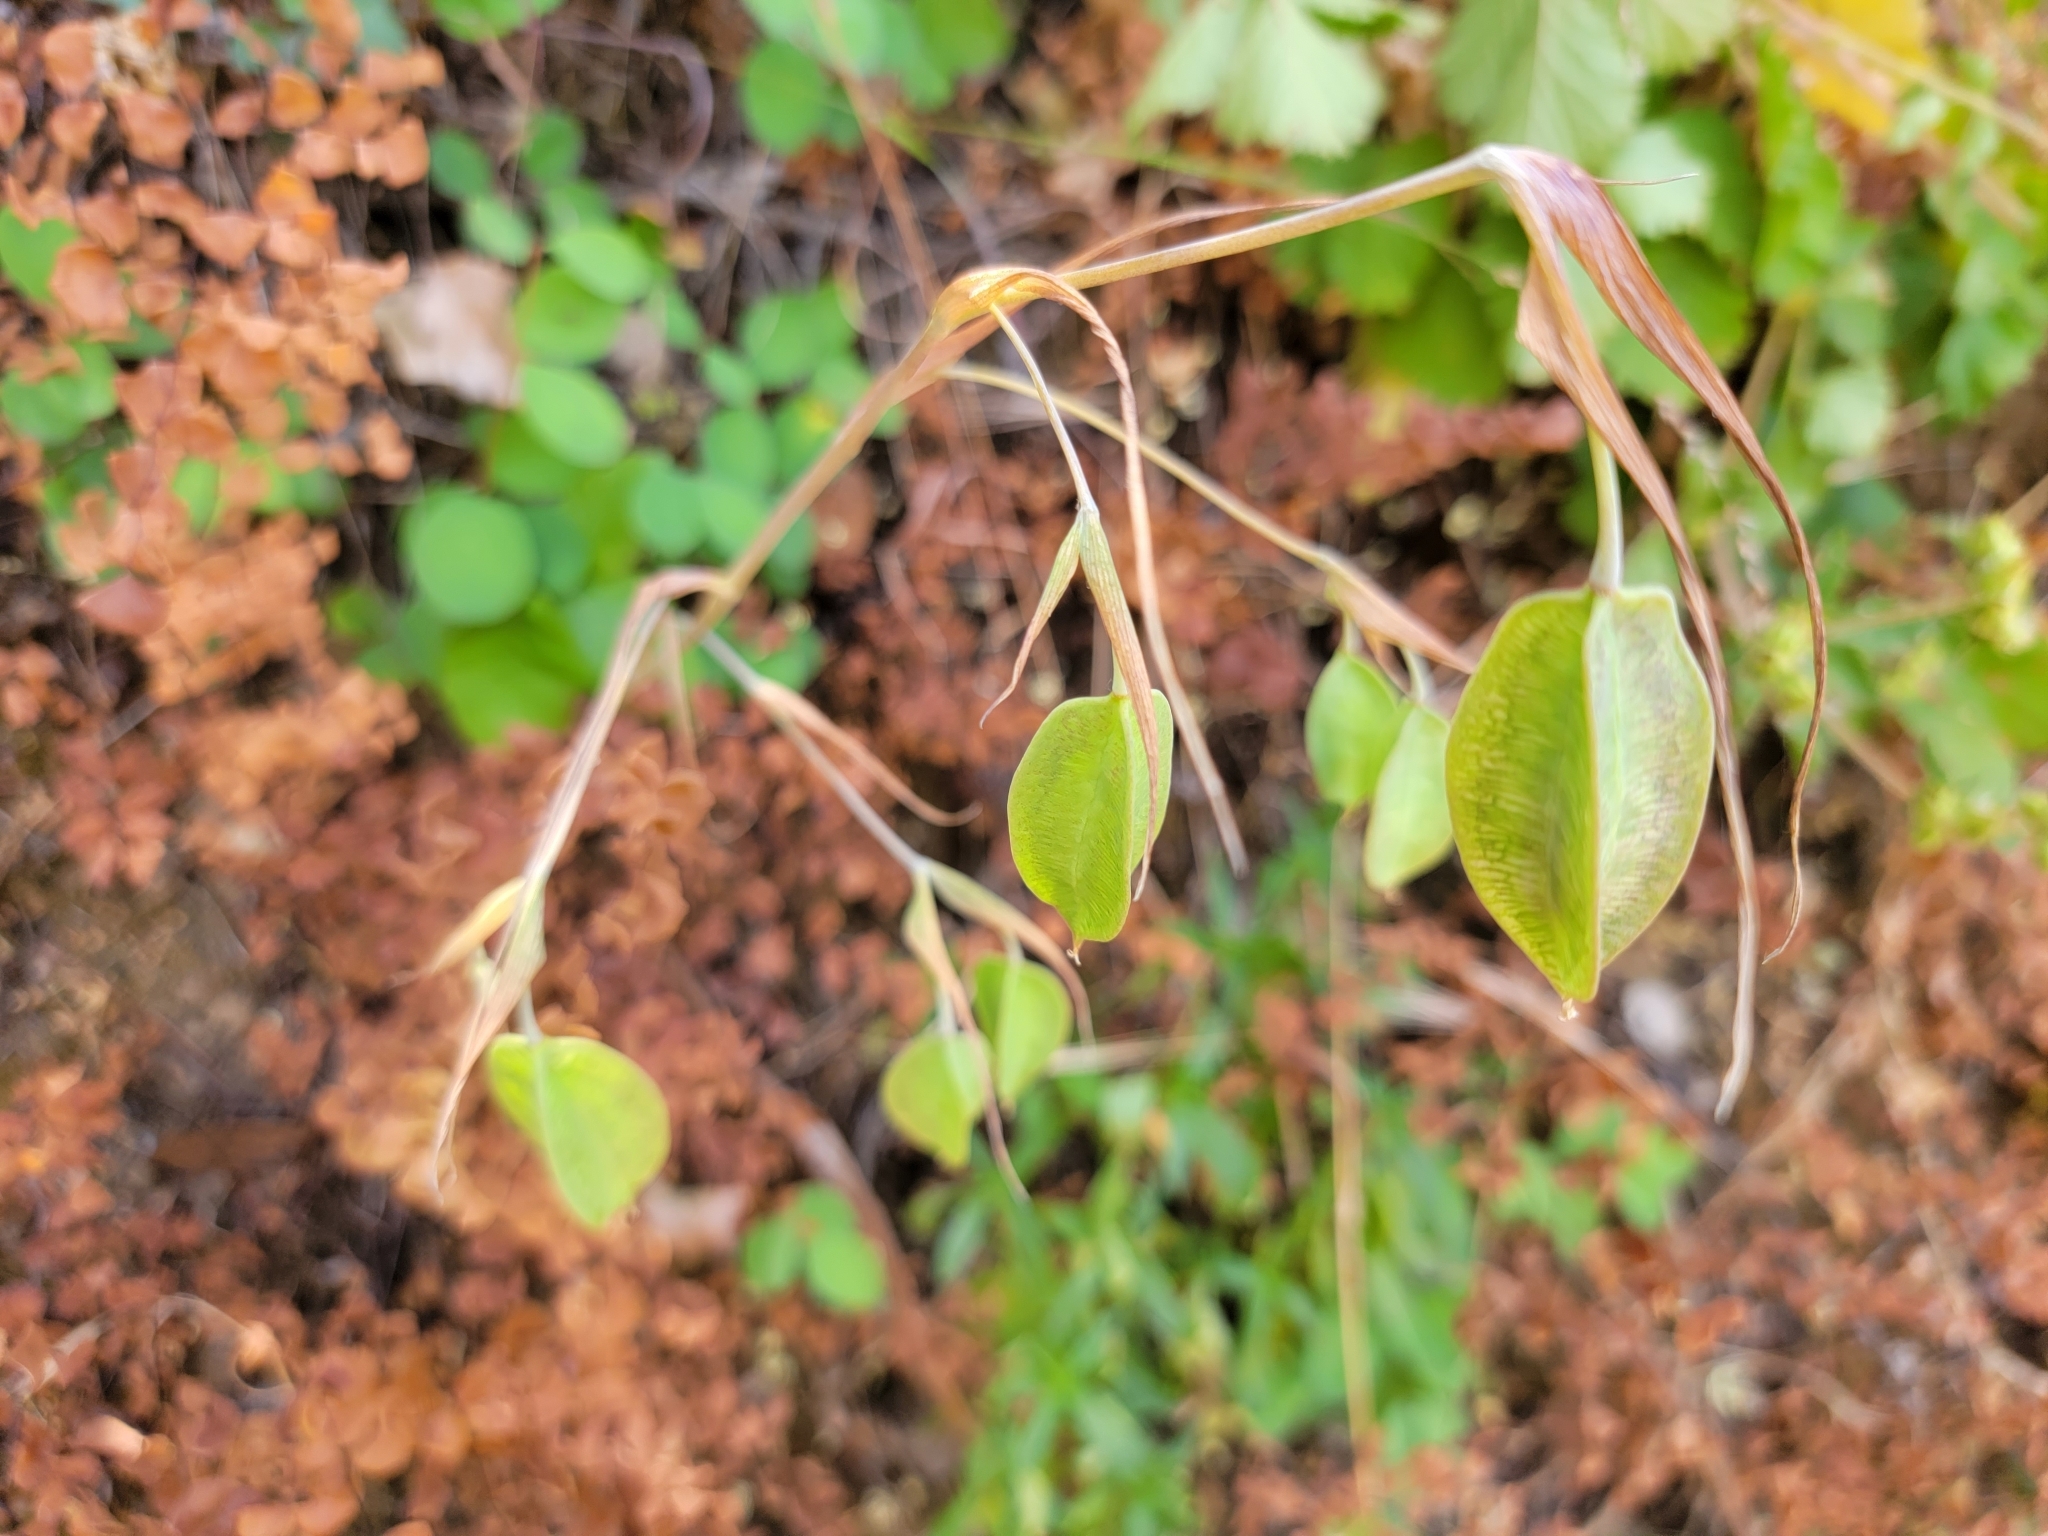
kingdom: Plantae
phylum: Tracheophyta
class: Liliopsida
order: Liliales
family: Liliaceae
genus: Calochortus
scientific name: Calochortus albus
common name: Fairy-lantern
